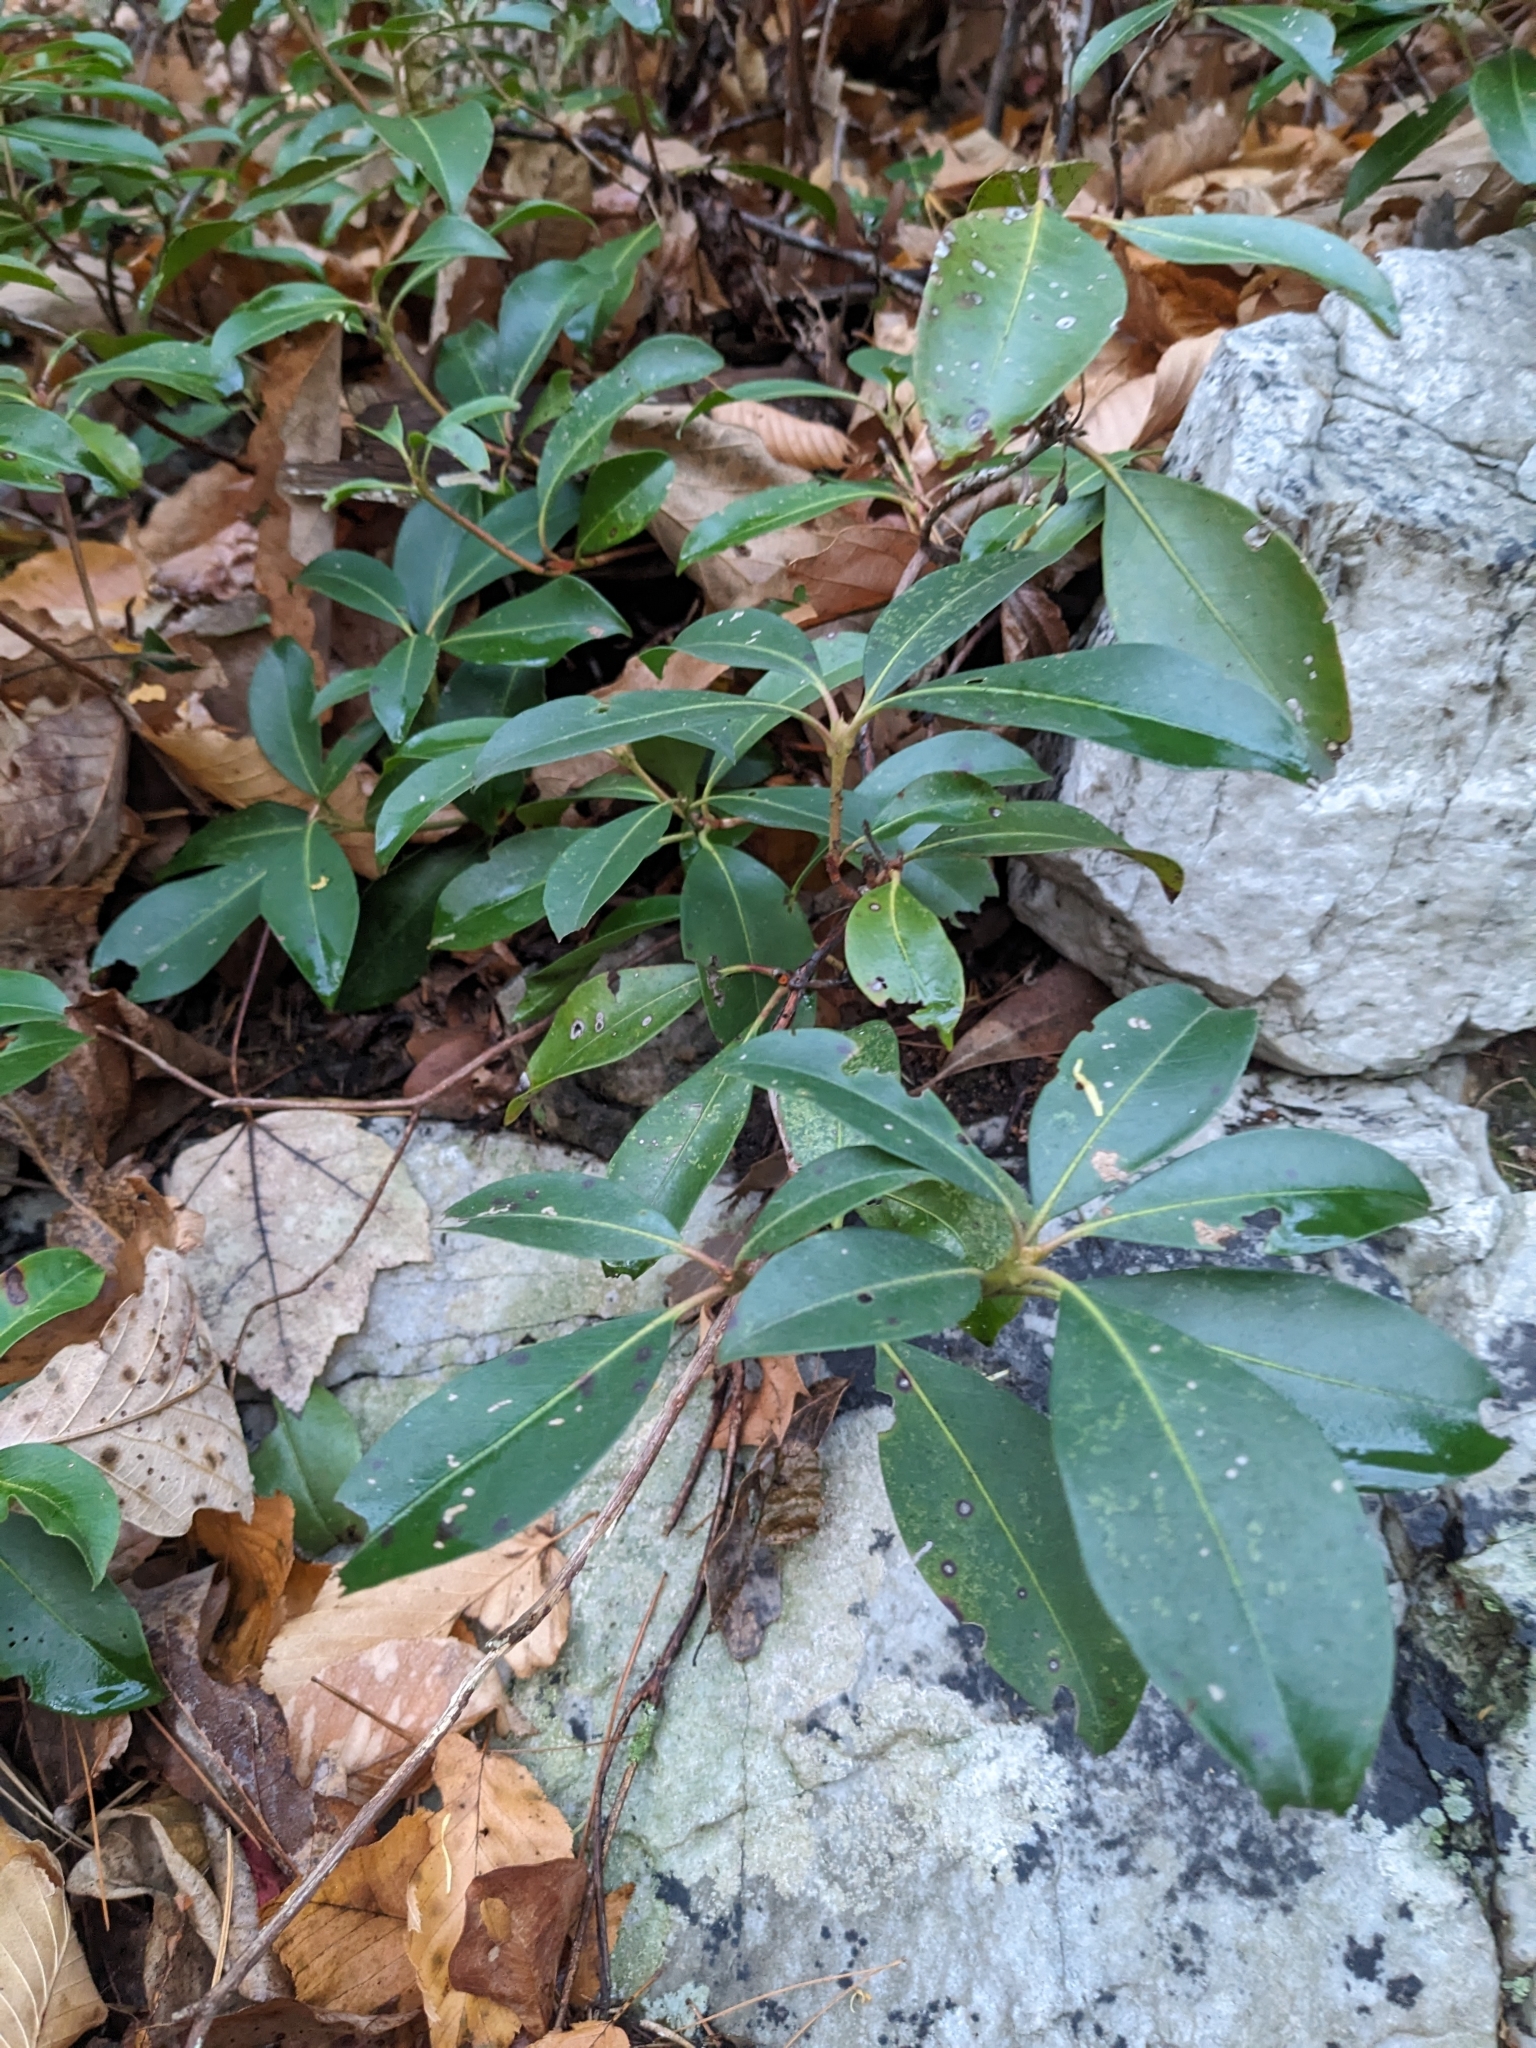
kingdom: Plantae
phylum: Tracheophyta
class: Magnoliopsida
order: Ericales
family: Ericaceae
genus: Kalmia
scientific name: Kalmia latifolia
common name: Mountain-laurel
